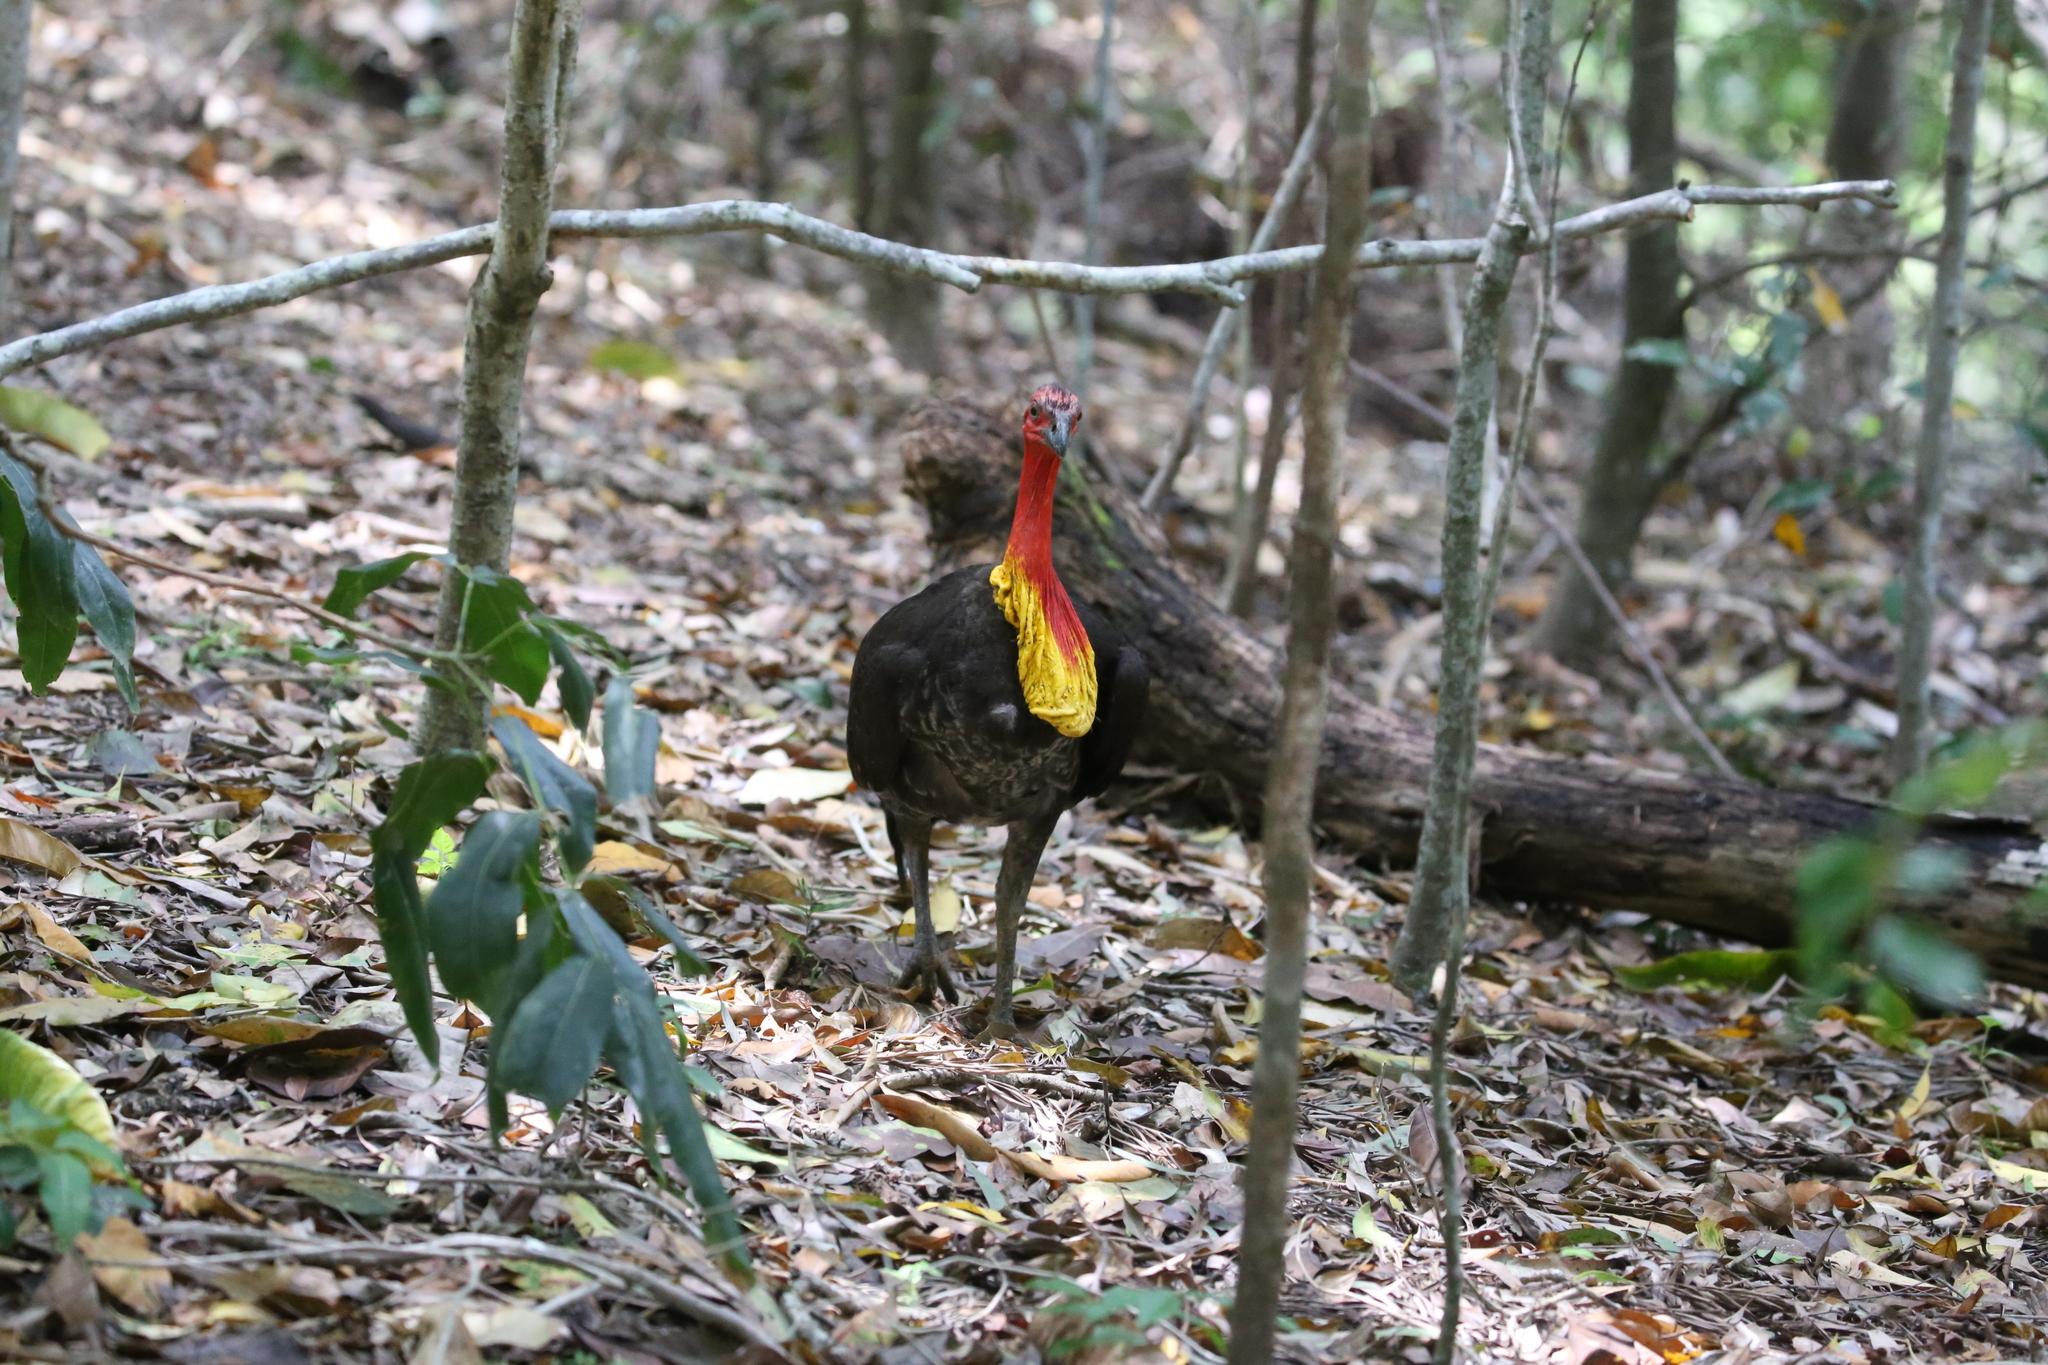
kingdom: Animalia
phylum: Chordata
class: Aves
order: Galliformes
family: Megapodiidae
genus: Alectura
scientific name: Alectura lathami
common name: Australian brushturkey
